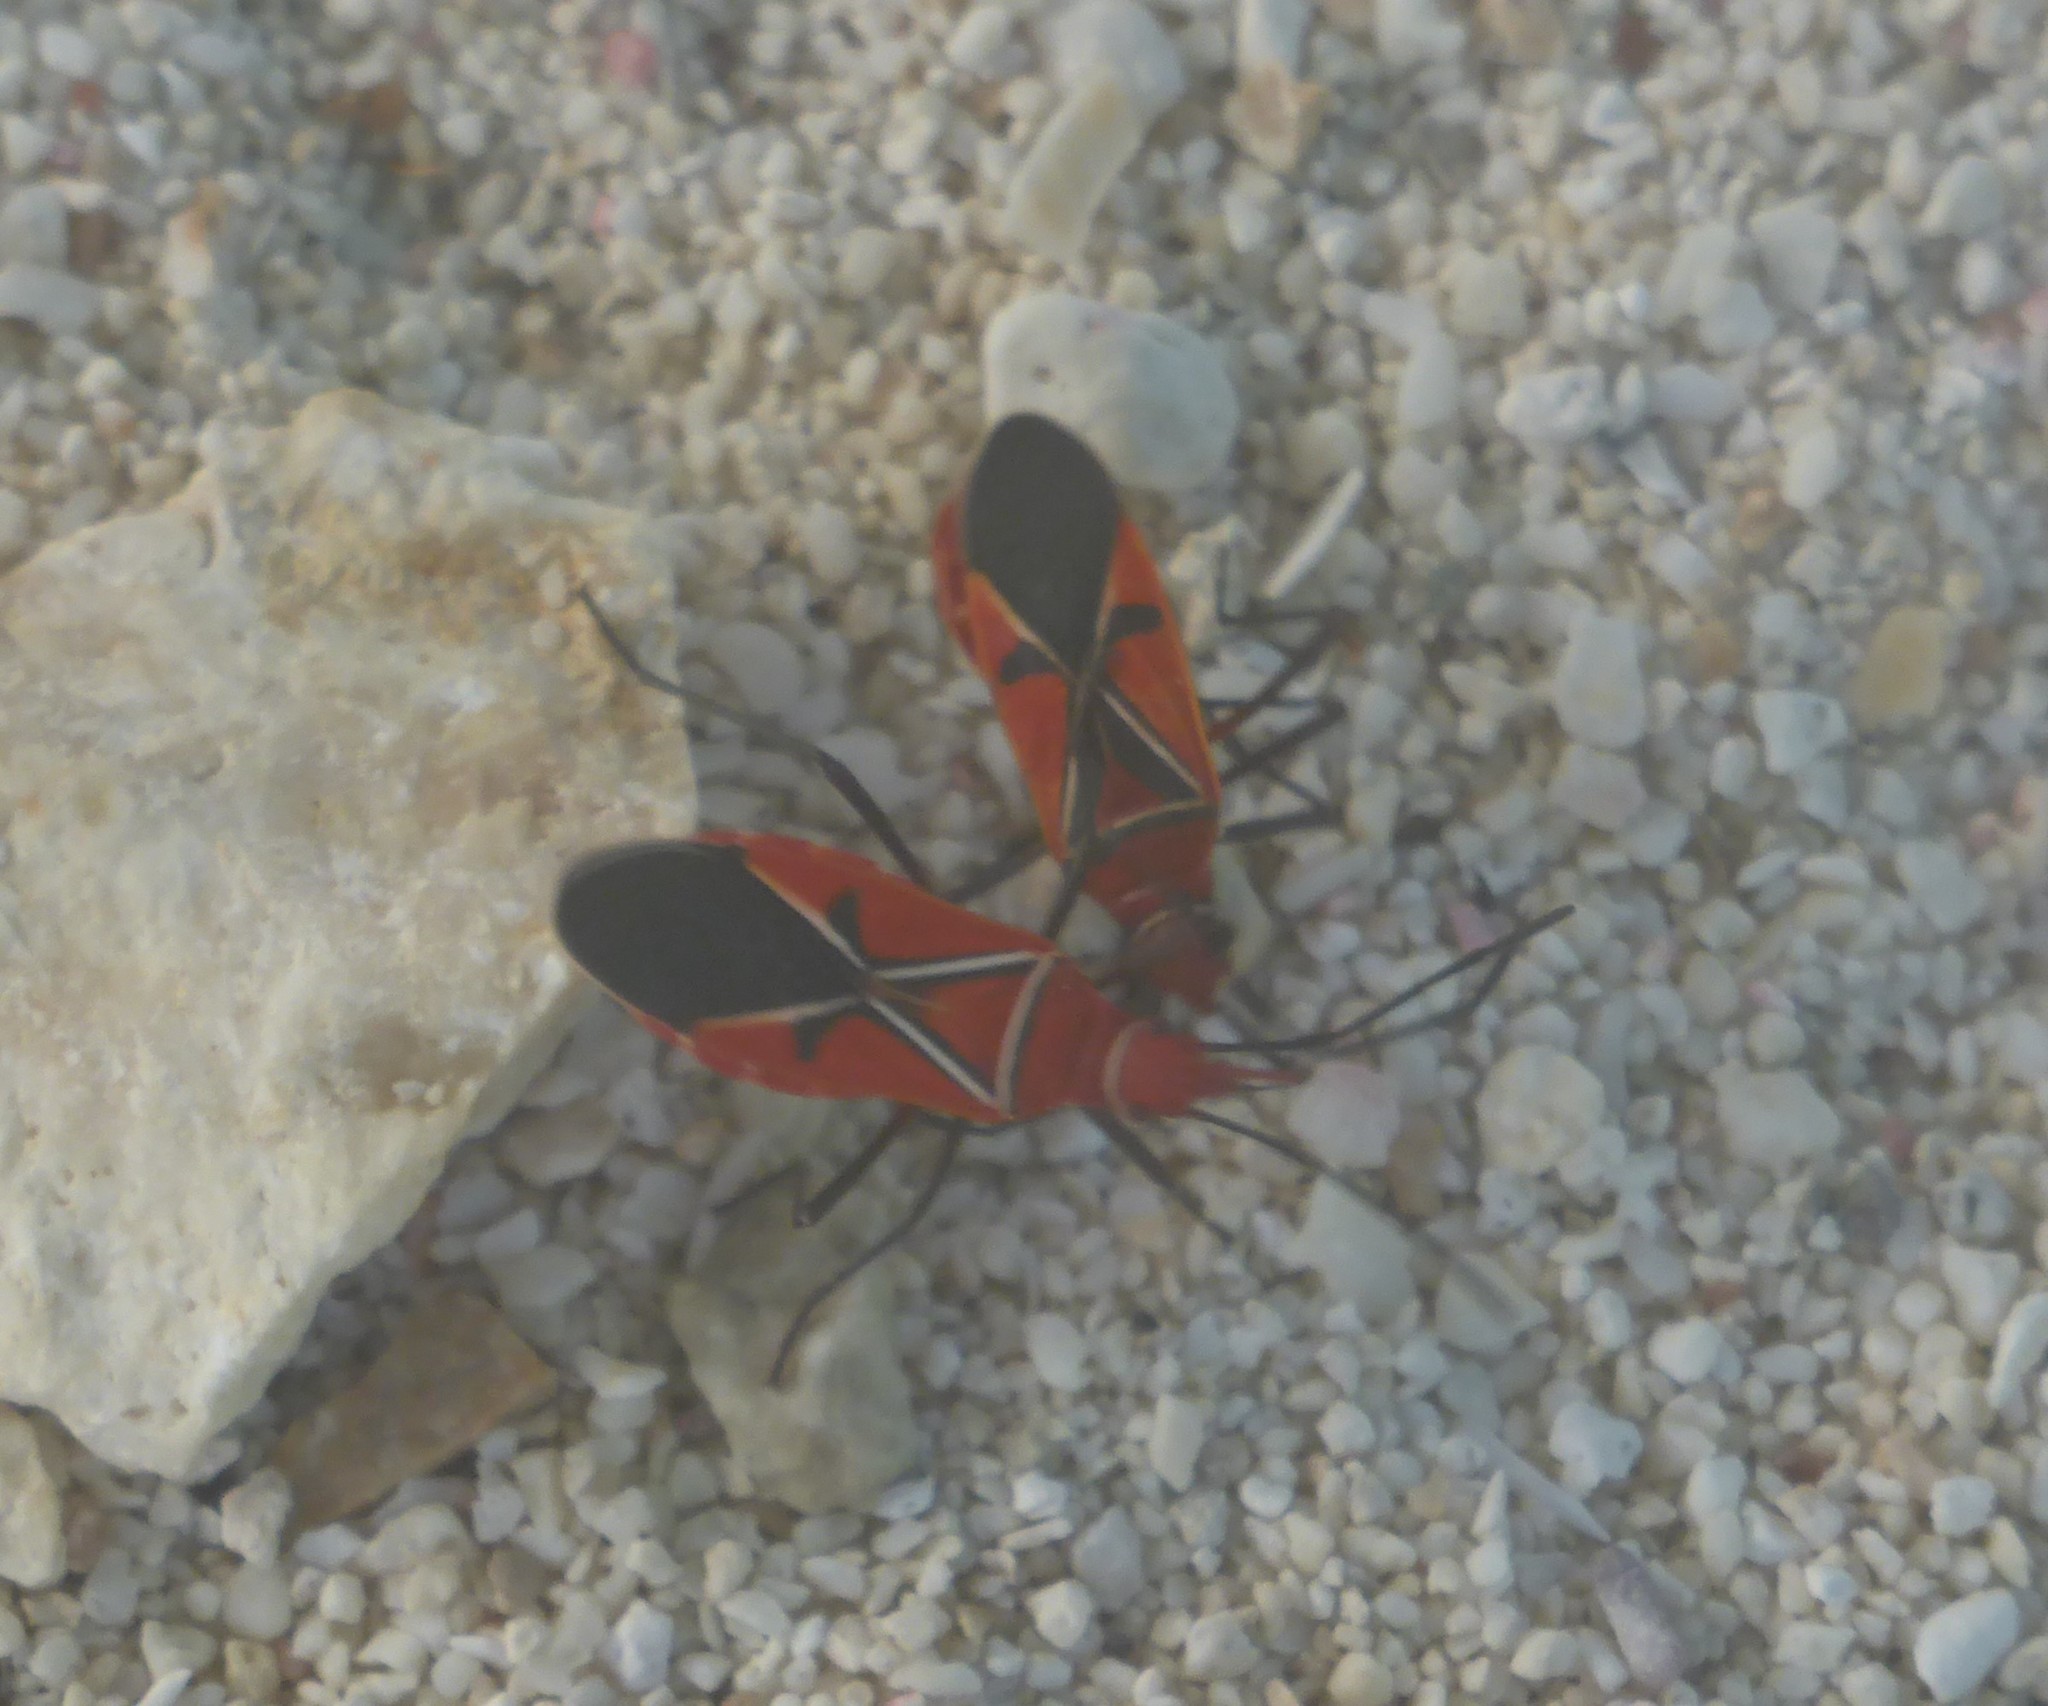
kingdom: Animalia
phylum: Arthropoda
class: Insecta
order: Hemiptera
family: Pyrrhocoridae
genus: Dysdercus
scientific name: Dysdercus suturellus
